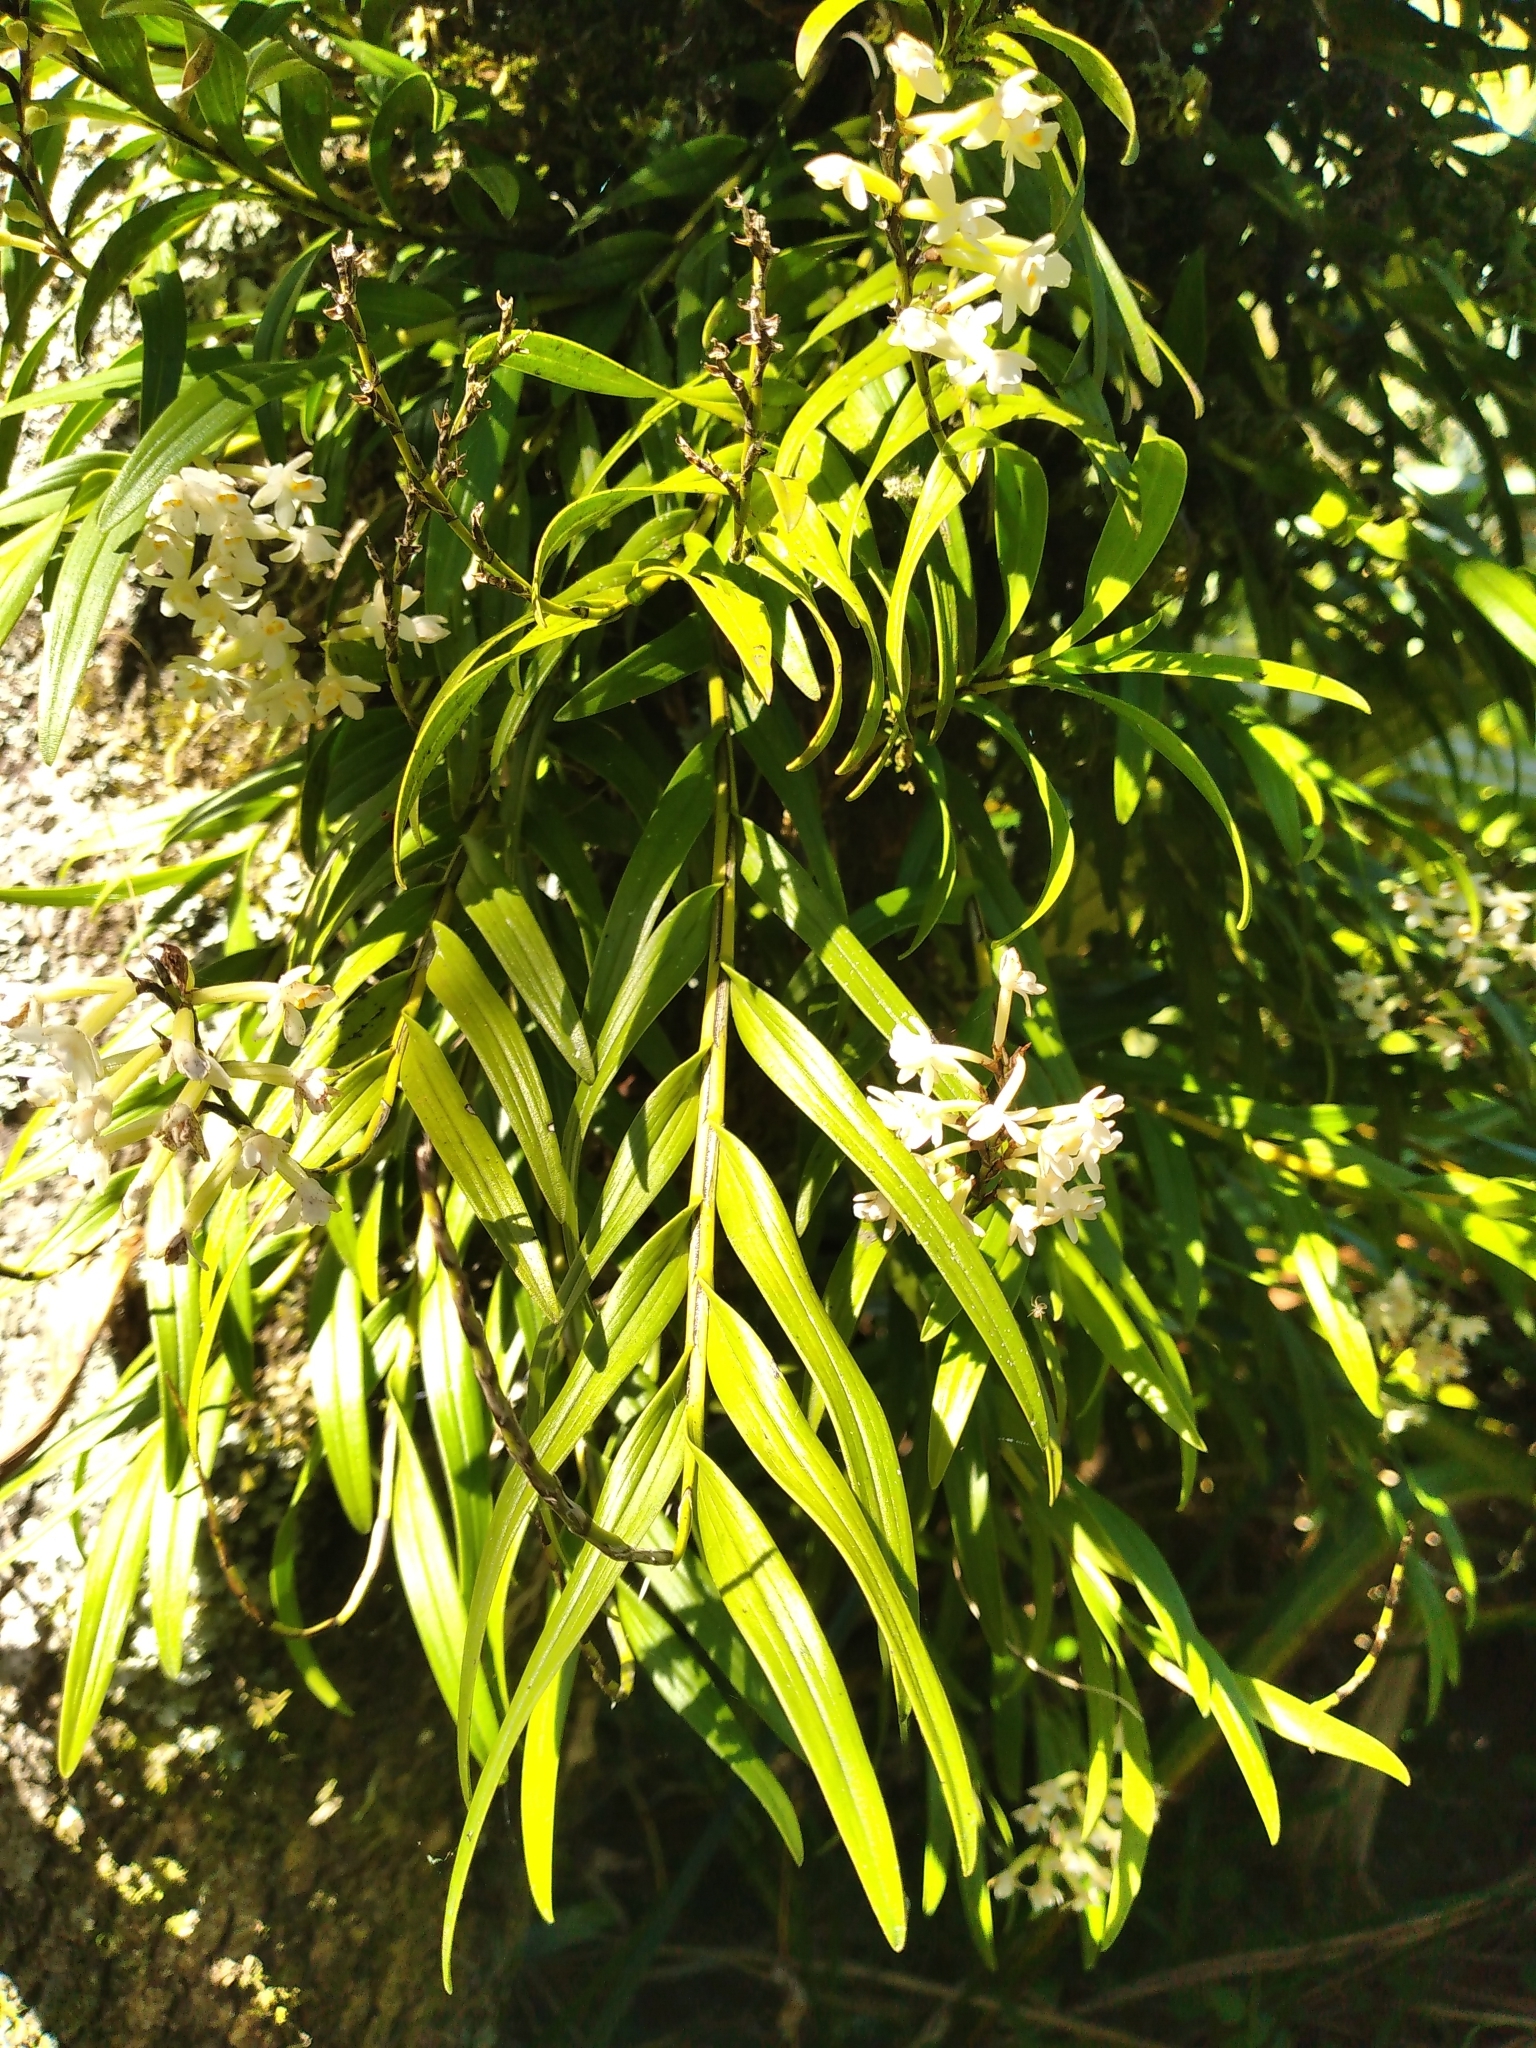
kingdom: Plantae
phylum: Tracheophyta
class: Liliopsida
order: Asparagales
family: Orchidaceae
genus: Earina
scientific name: Earina autumnalis
